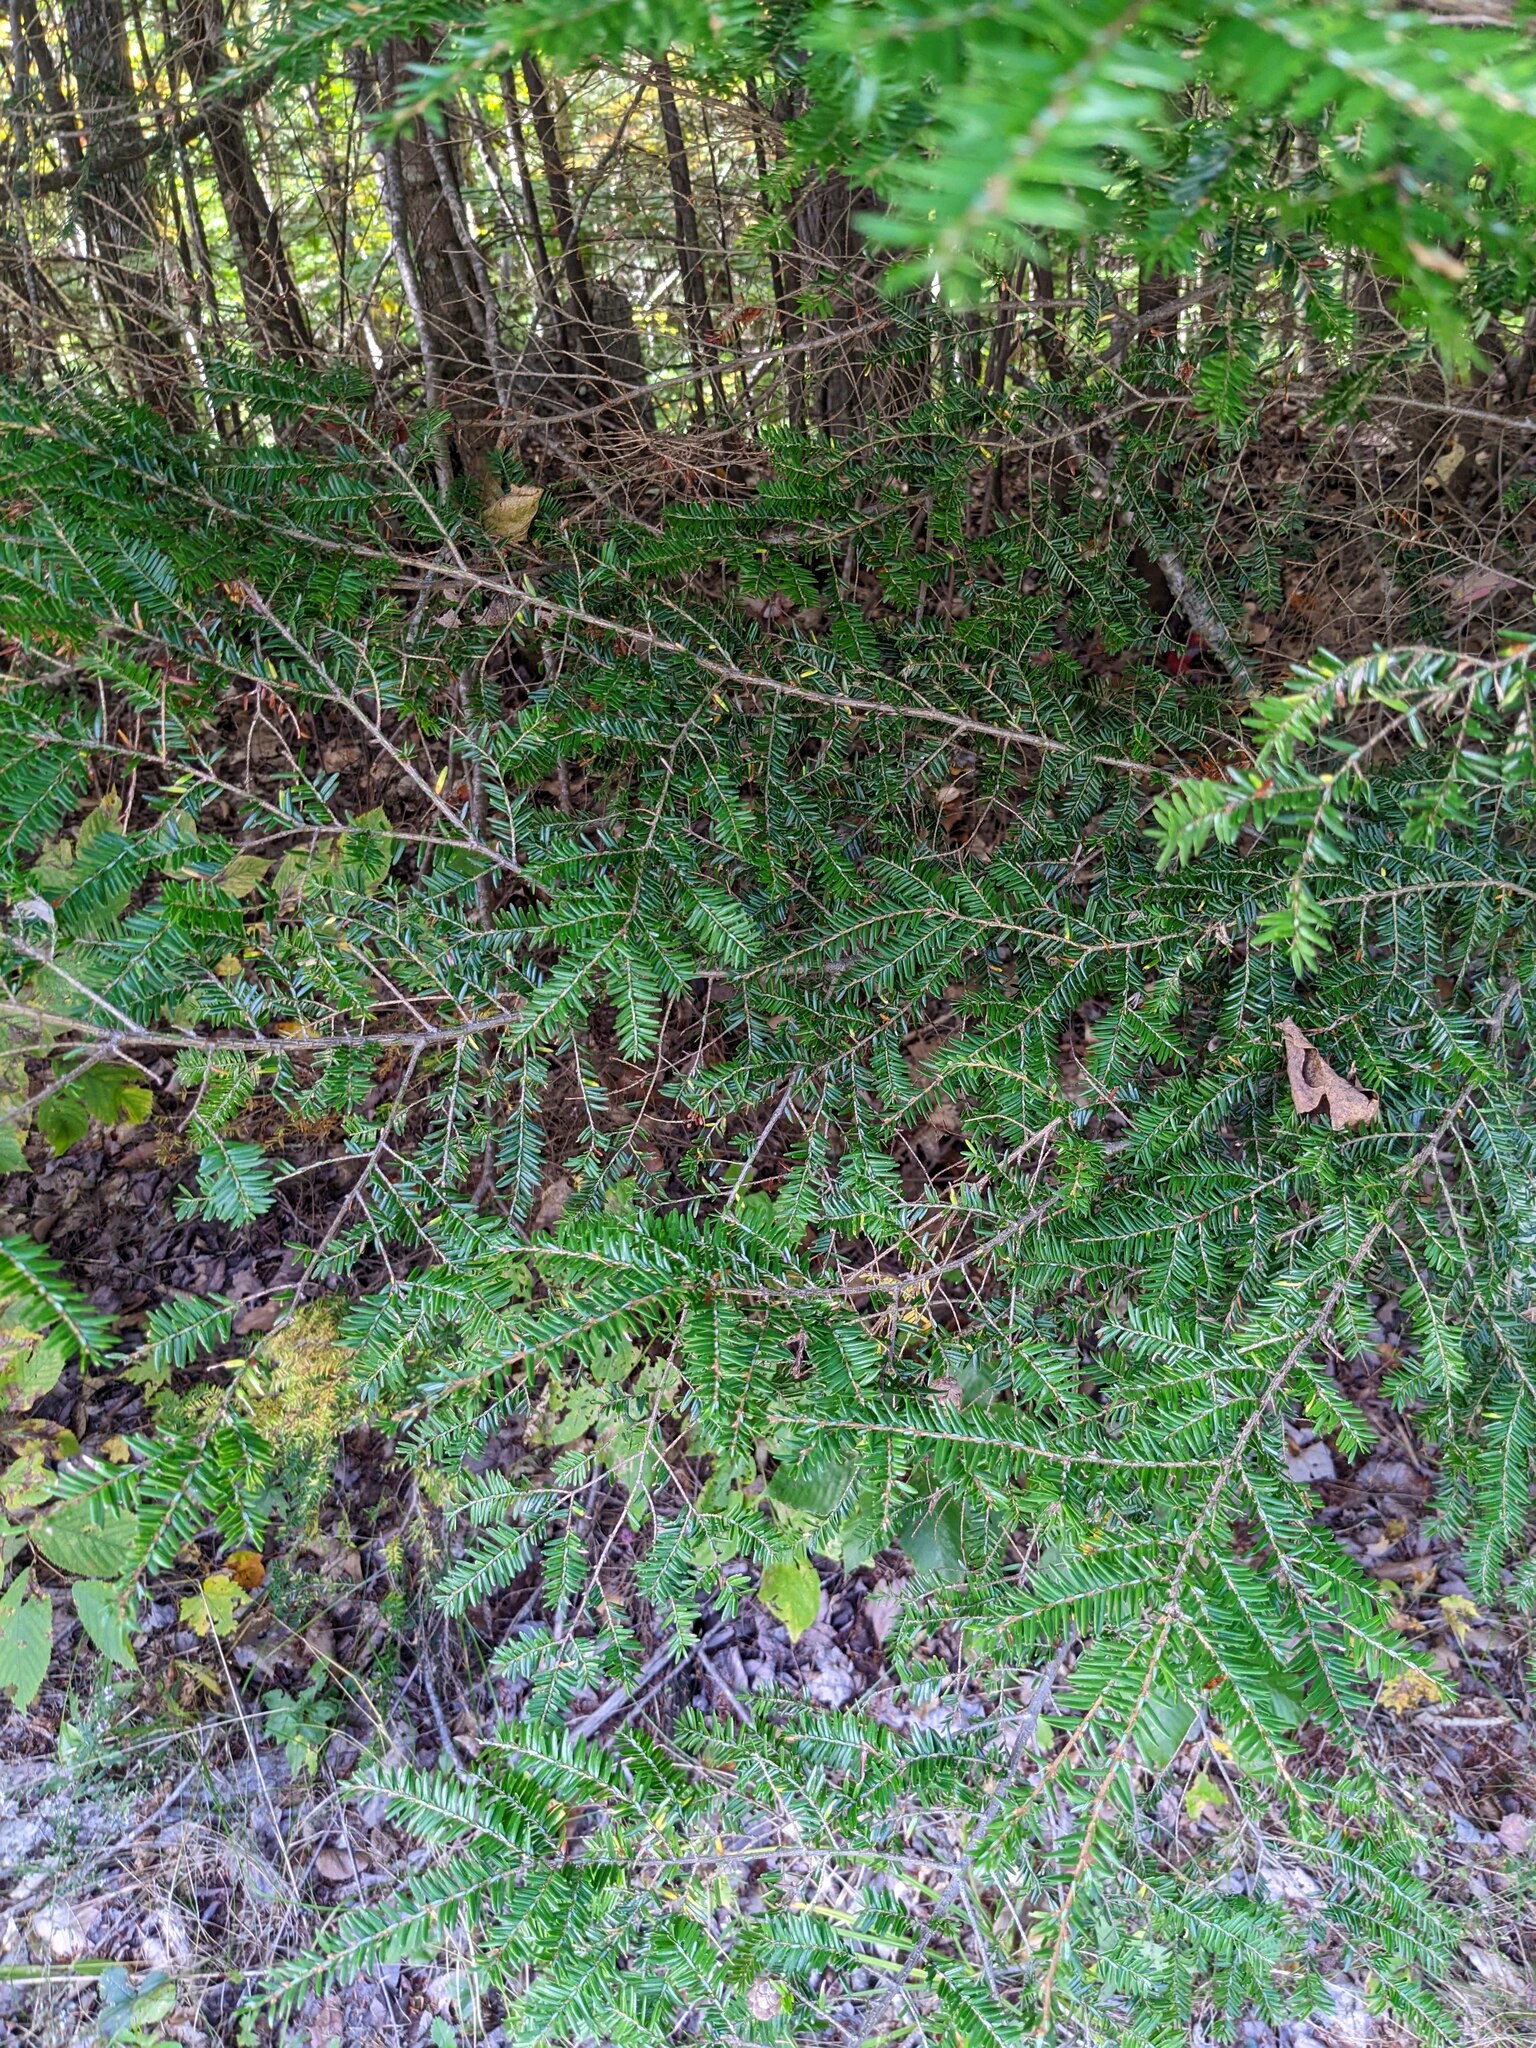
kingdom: Plantae
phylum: Tracheophyta
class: Pinopsida
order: Pinales
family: Pinaceae
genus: Tsuga
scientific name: Tsuga canadensis
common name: Eastern hemlock
